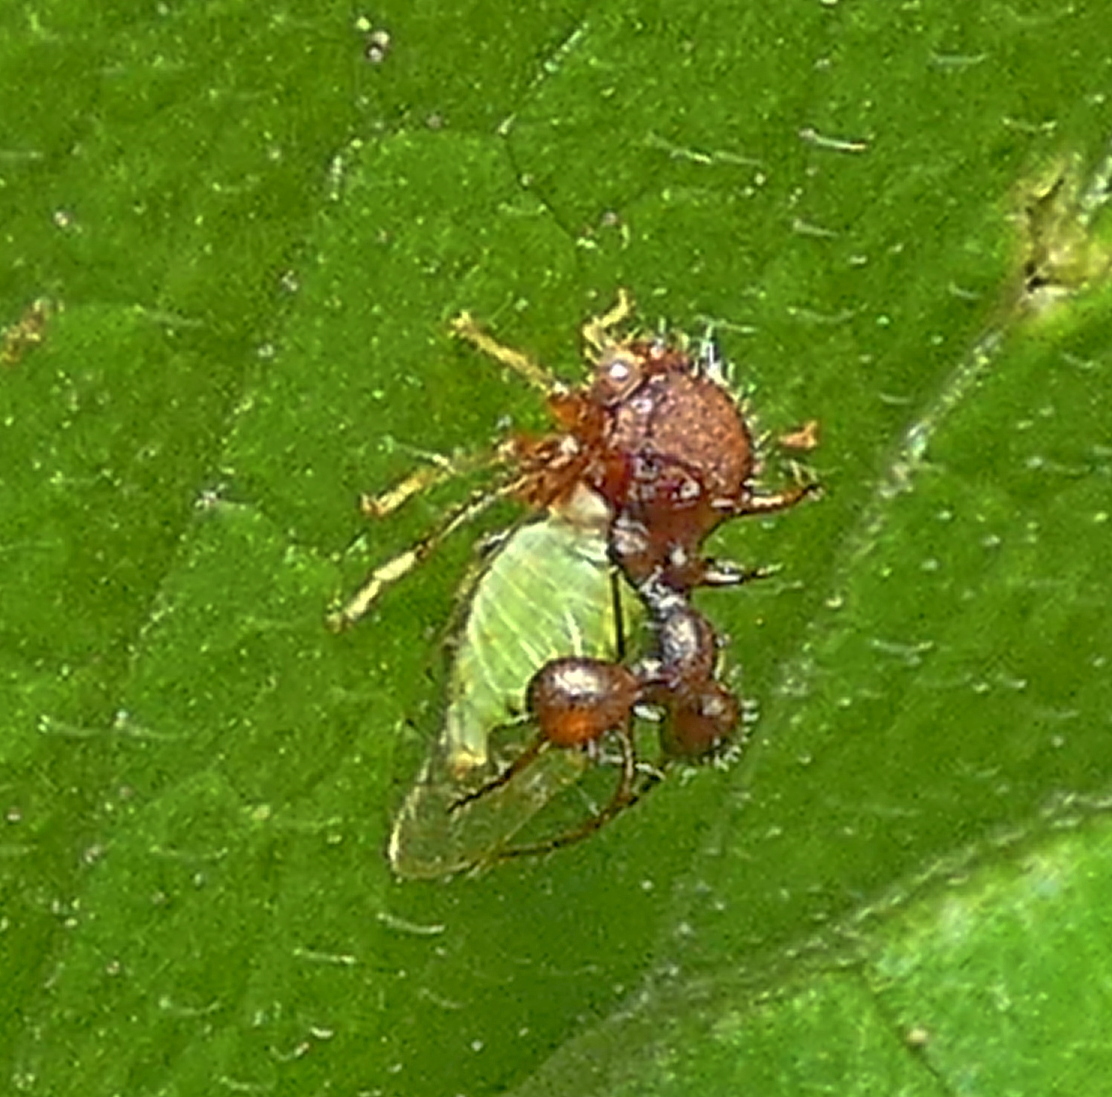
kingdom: Animalia
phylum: Arthropoda
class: Insecta
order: Hemiptera
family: Membracidae
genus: Cyphonia
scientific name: Cyphonia clavata
